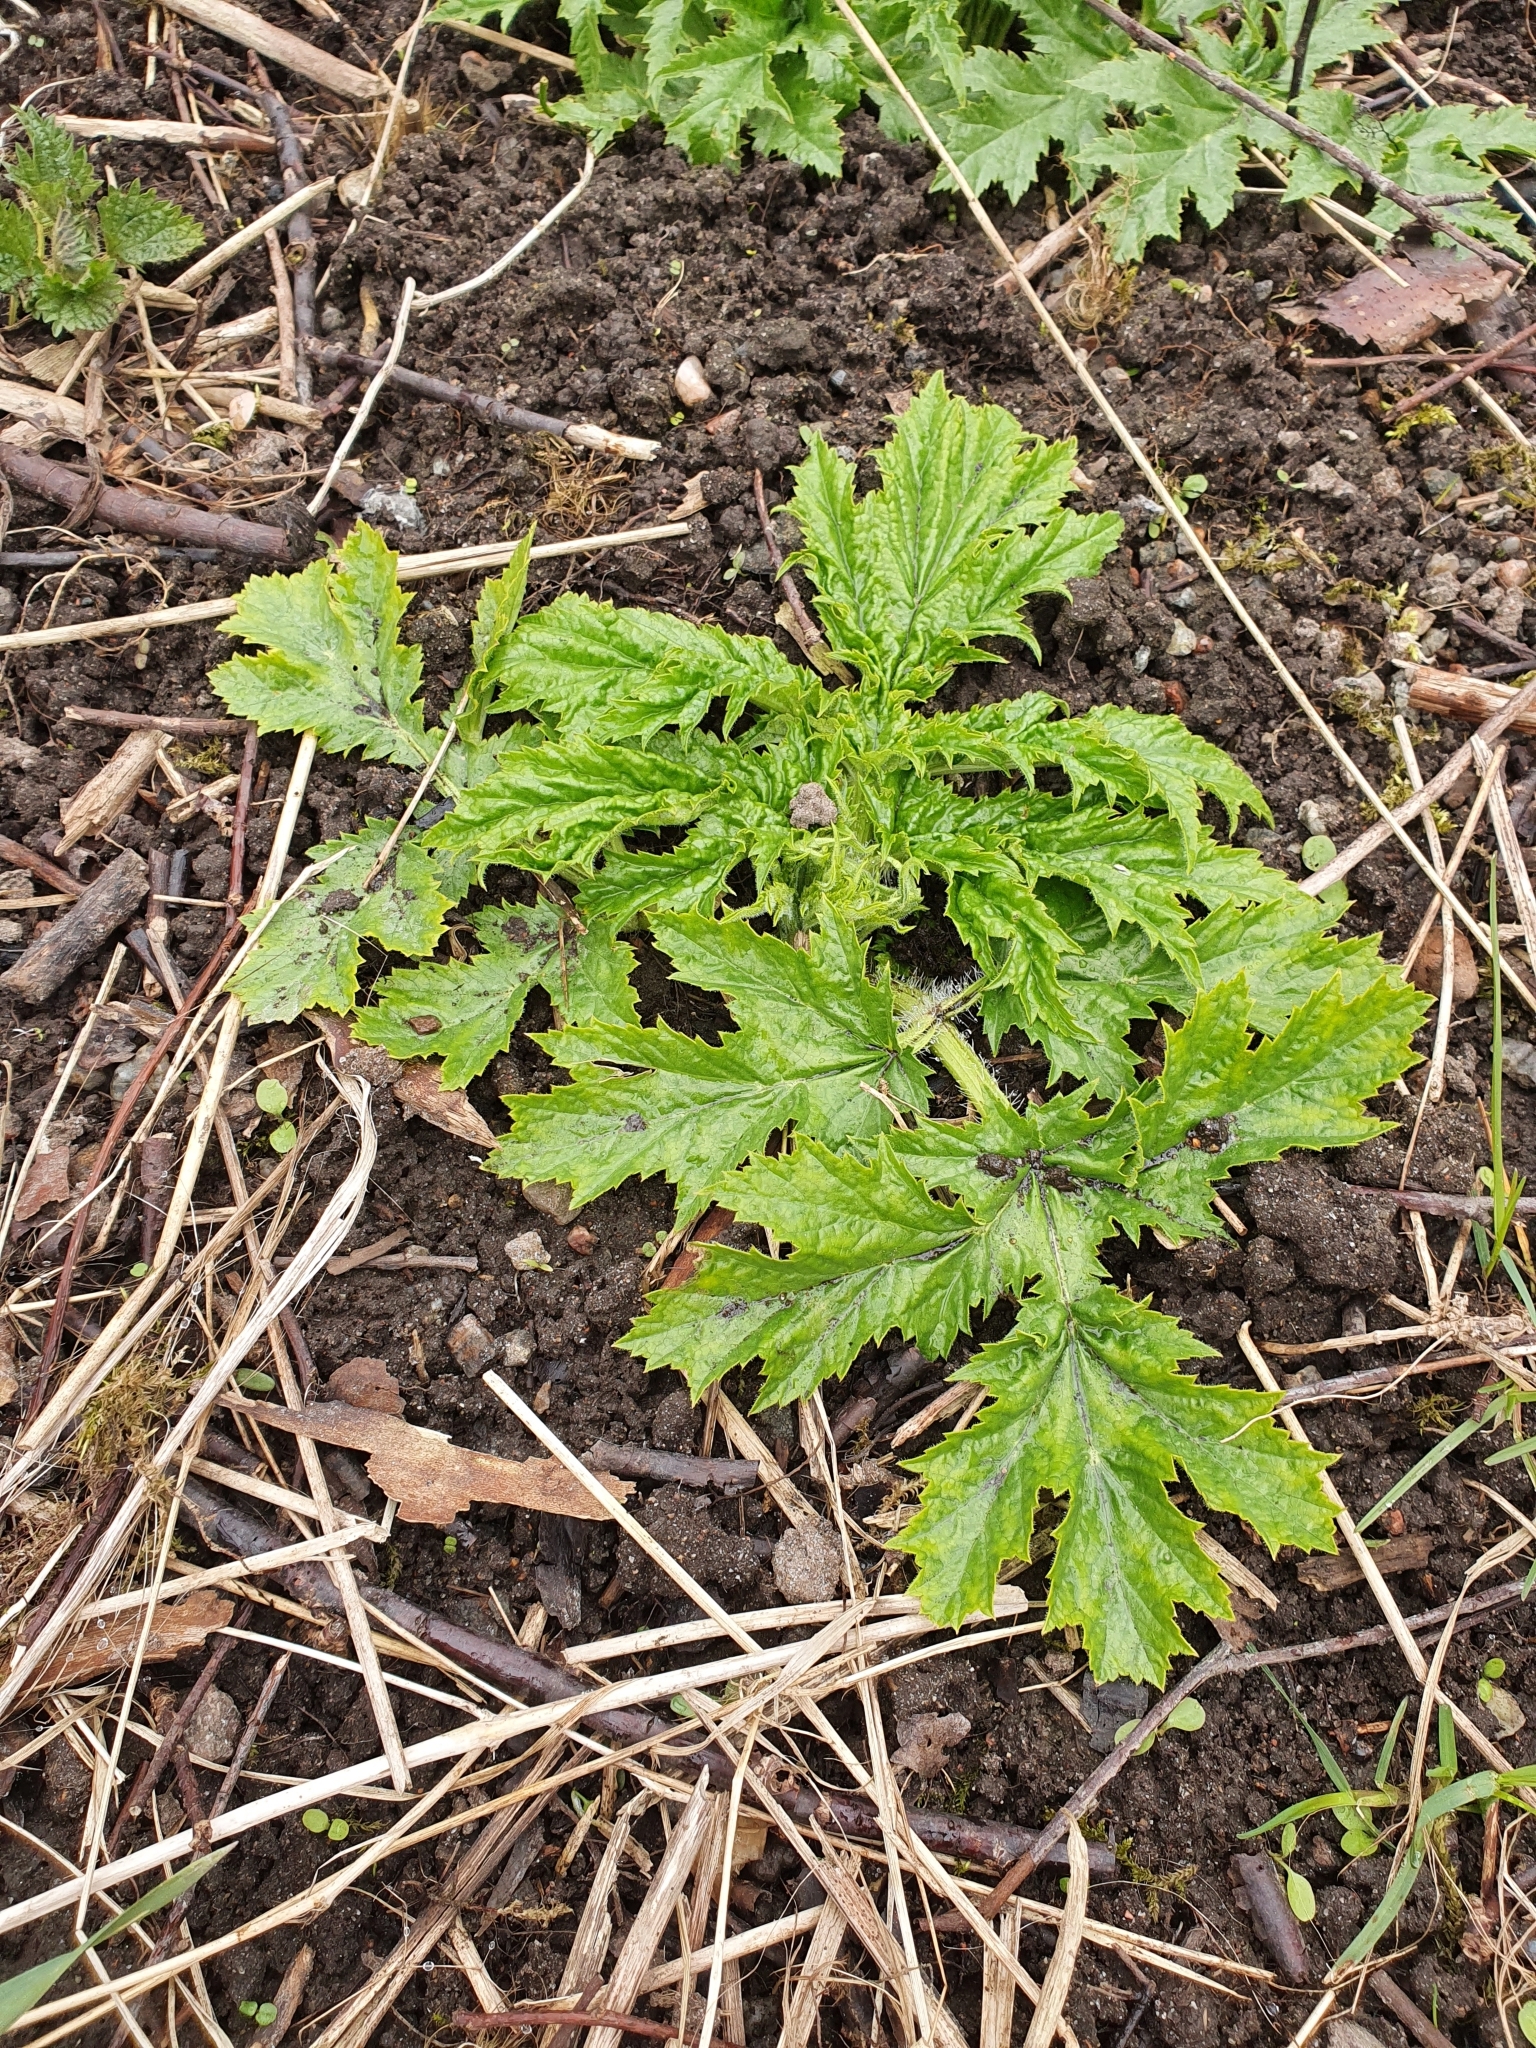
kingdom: Plantae
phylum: Tracheophyta
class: Magnoliopsida
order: Apiales
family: Apiaceae
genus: Heracleum
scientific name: Heracleum mantegazzianum
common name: Giant hogweed
